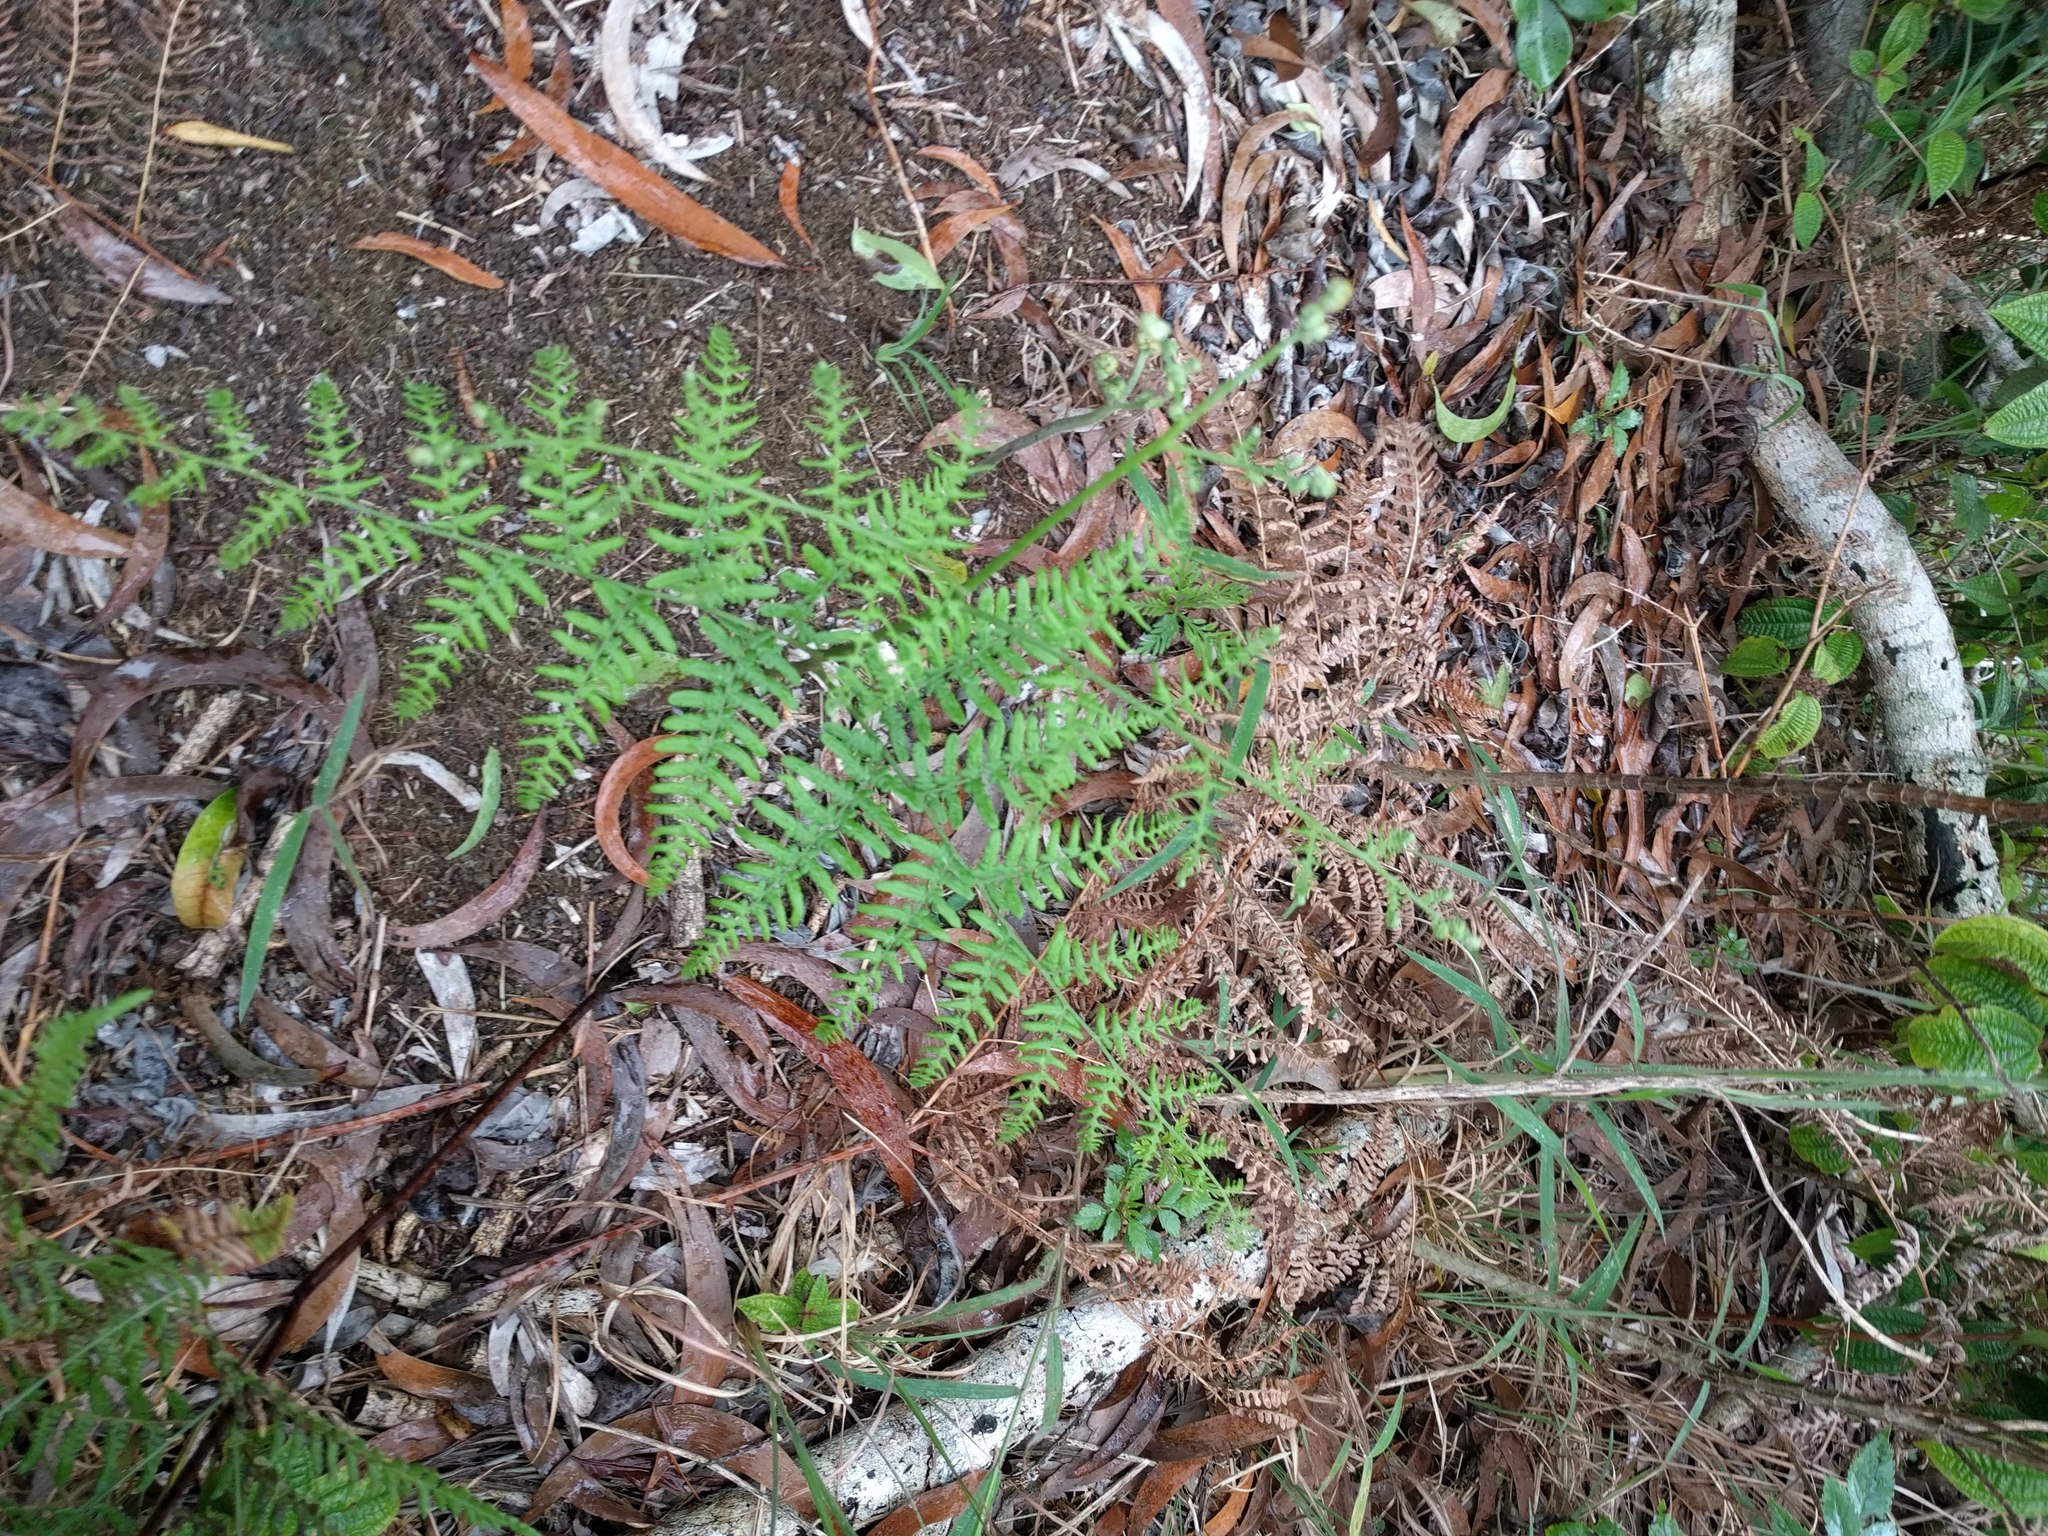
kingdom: Plantae
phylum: Tracheophyta
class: Polypodiopsida
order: Polypodiales
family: Dennstaedtiaceae
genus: Pteridium
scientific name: Pteridium aquilinum
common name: Bracken
